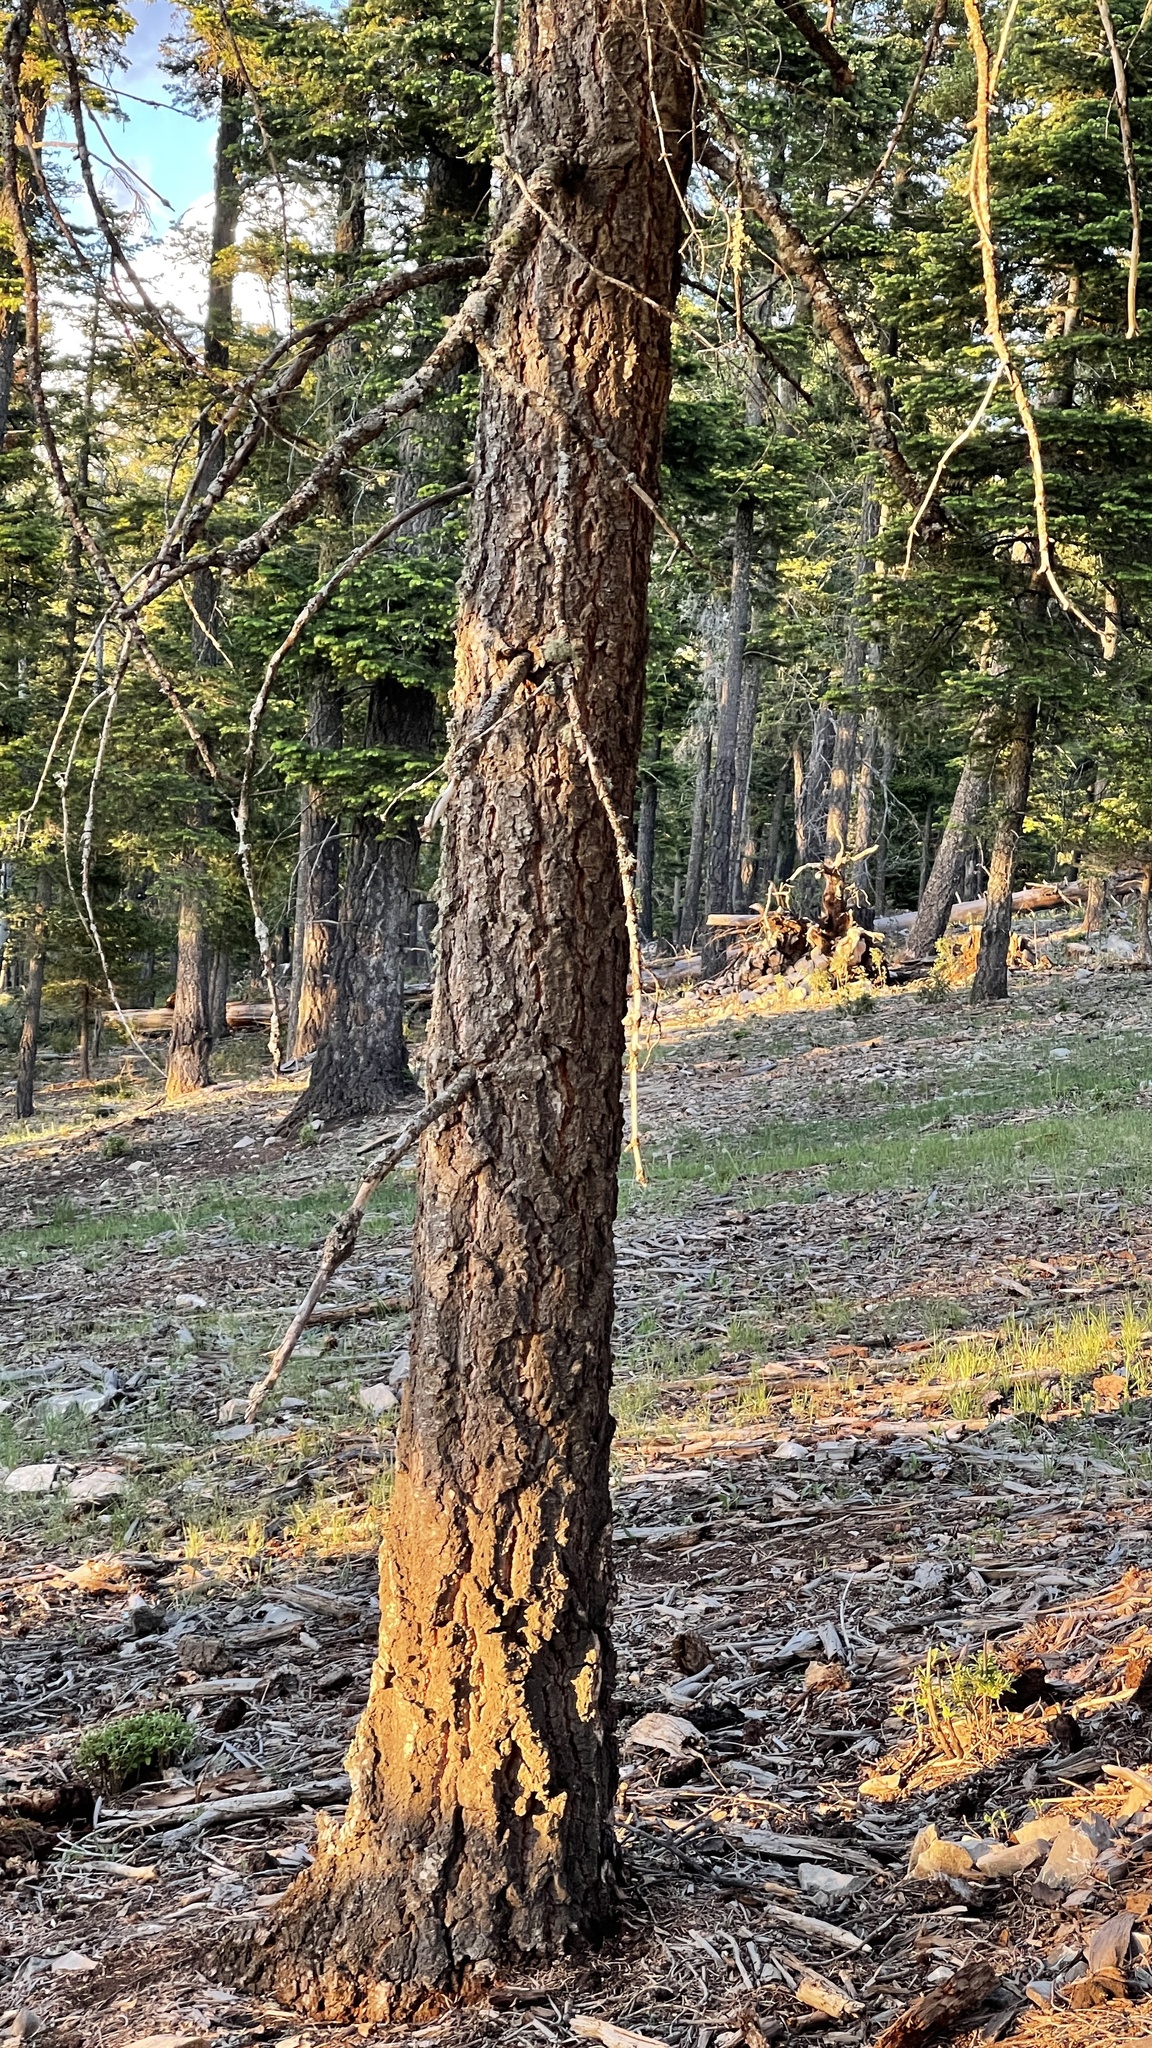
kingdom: Plantae
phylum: Tracheophyta
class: Pinopsida
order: Pinales
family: Pinaceae
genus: Abies
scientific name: Abies concolor
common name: Colorado fir
